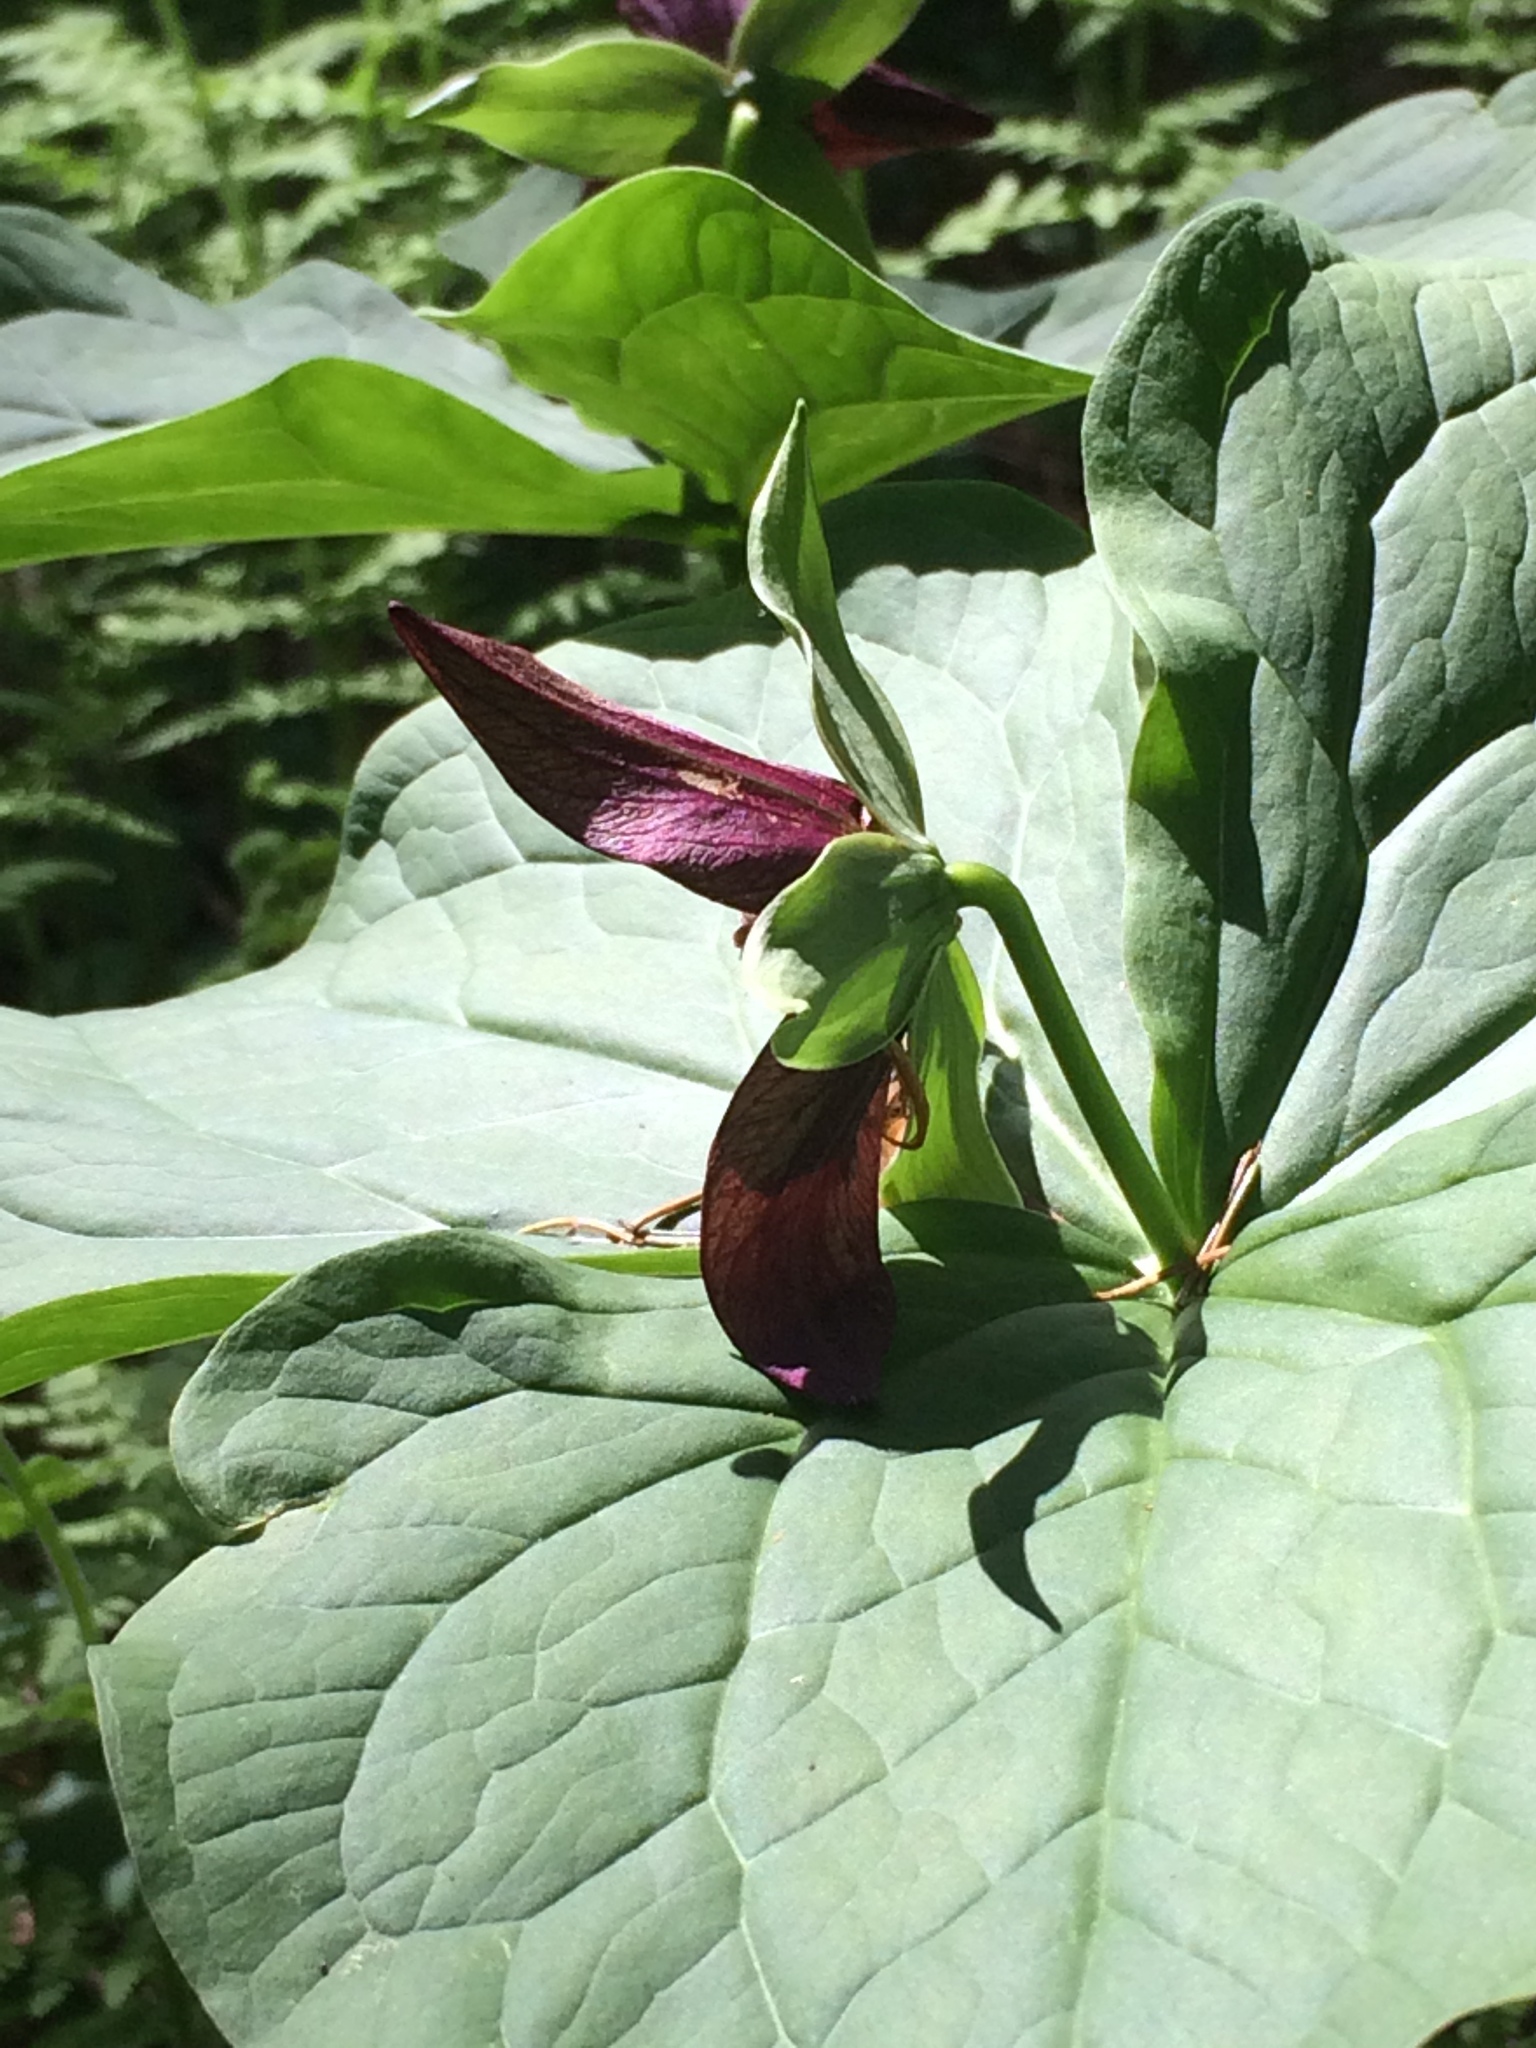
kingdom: Plantae
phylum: Tracheophyta
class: Liliopsida
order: Liliales
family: Melanthiaceae
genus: Trillium
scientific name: Trillium erectum
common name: Purple trillium
